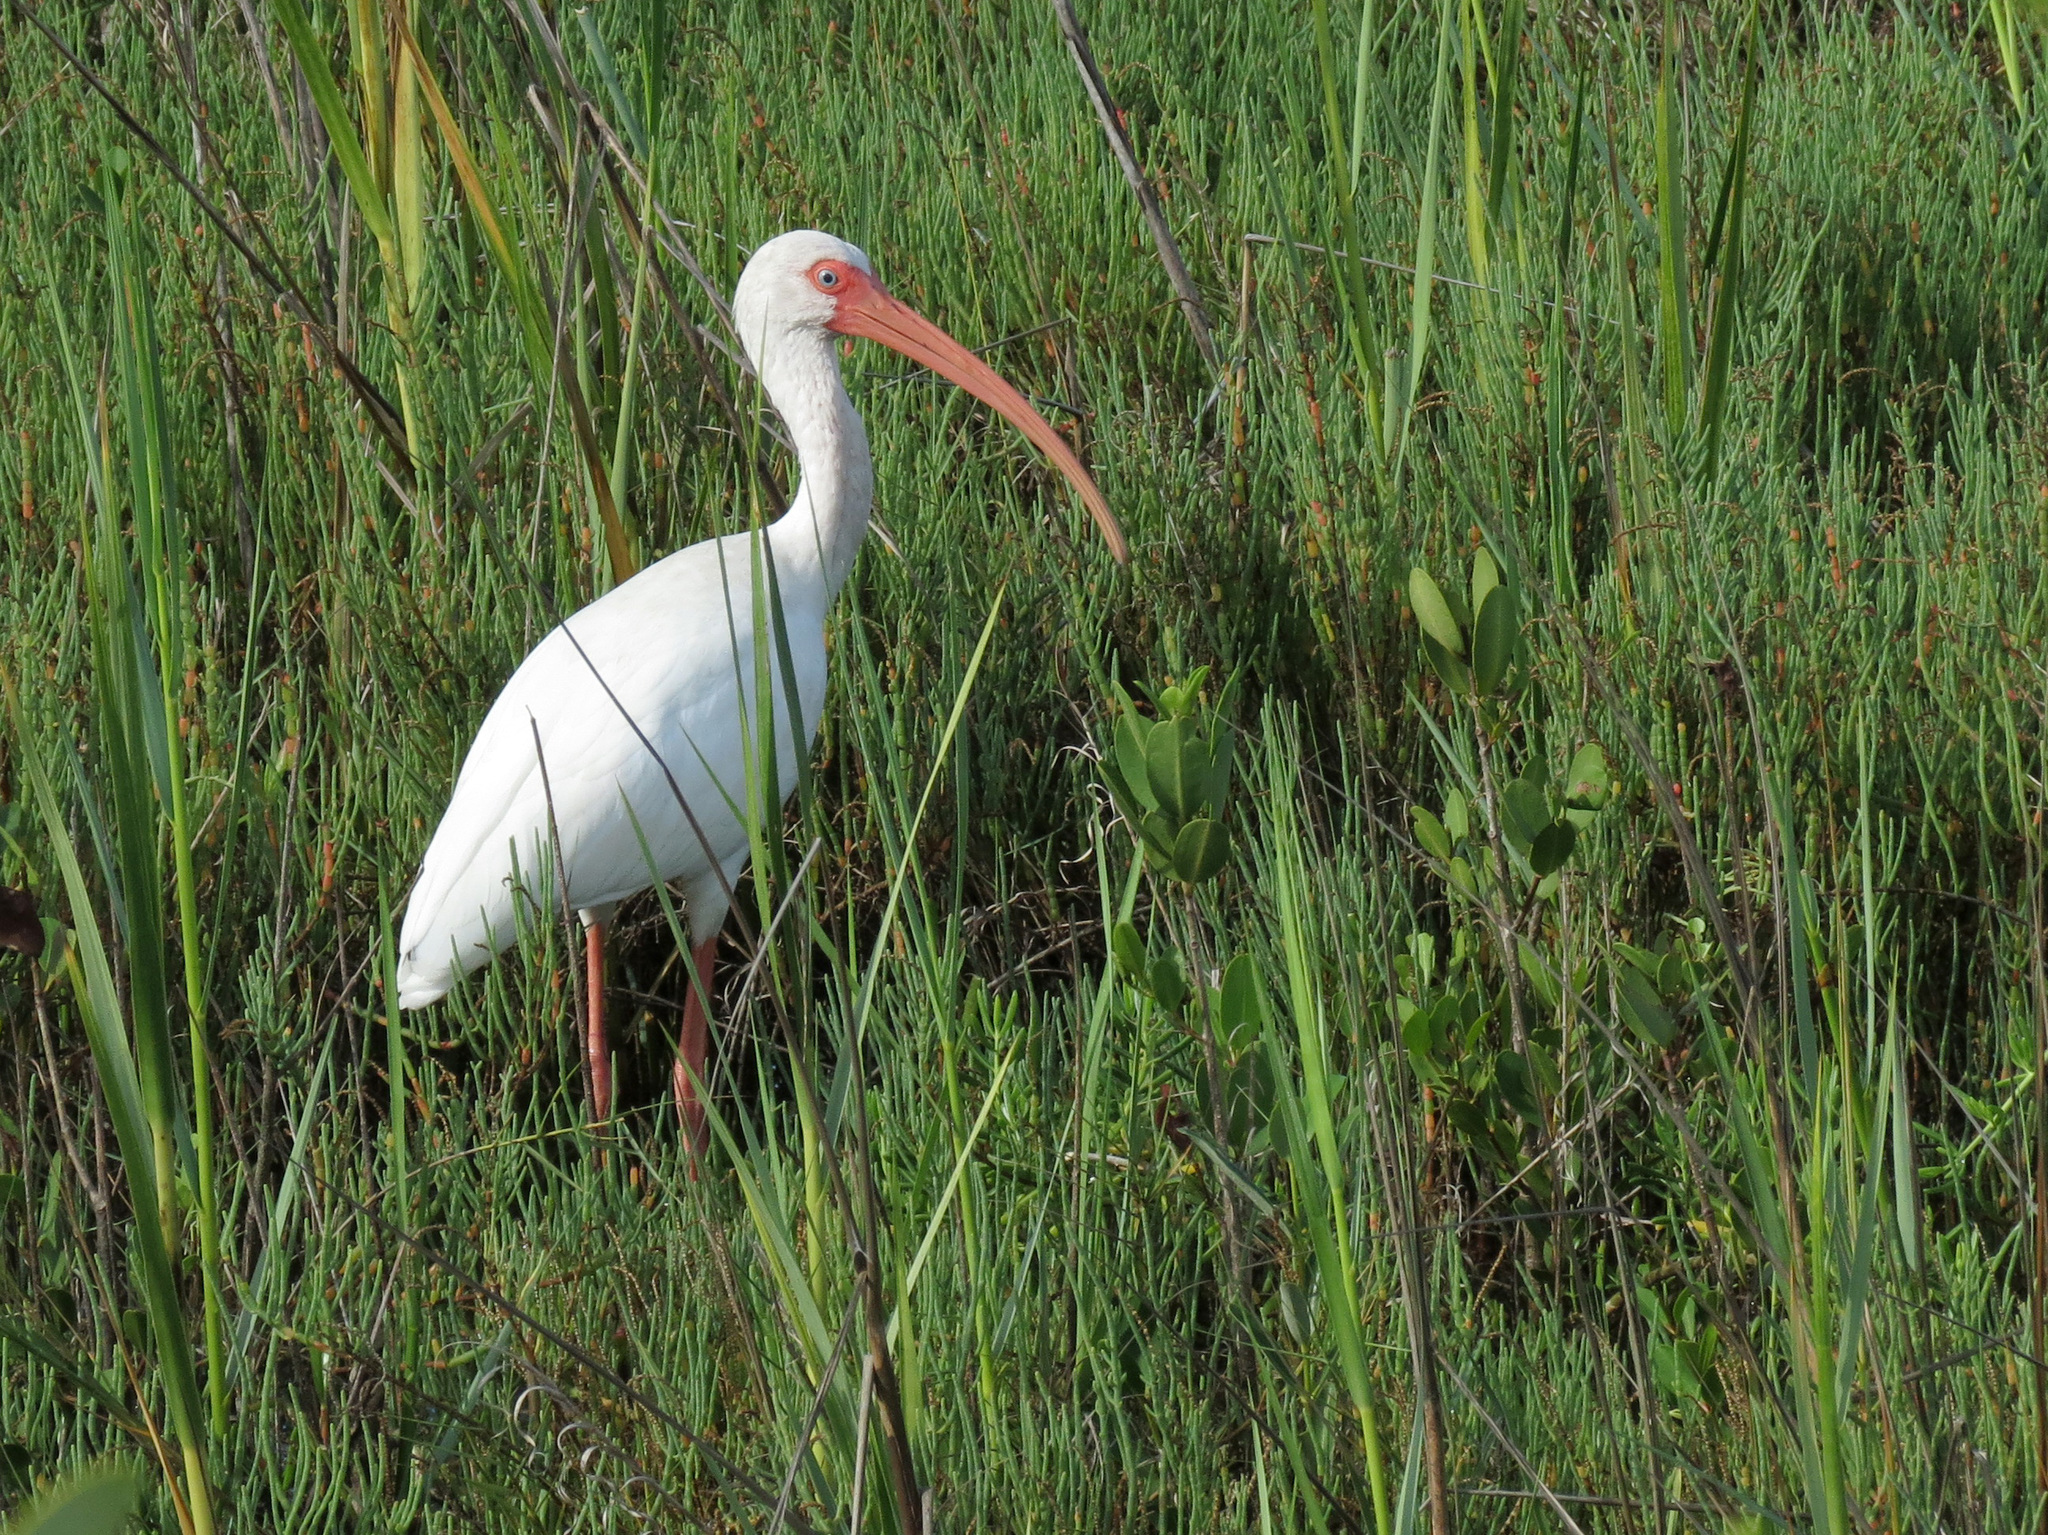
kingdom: Animalia
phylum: Chordata
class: Aves
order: Pelecaniformes
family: Threskiornithidae
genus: Eudocimus
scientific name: Eudocimus albus
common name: White ibis
